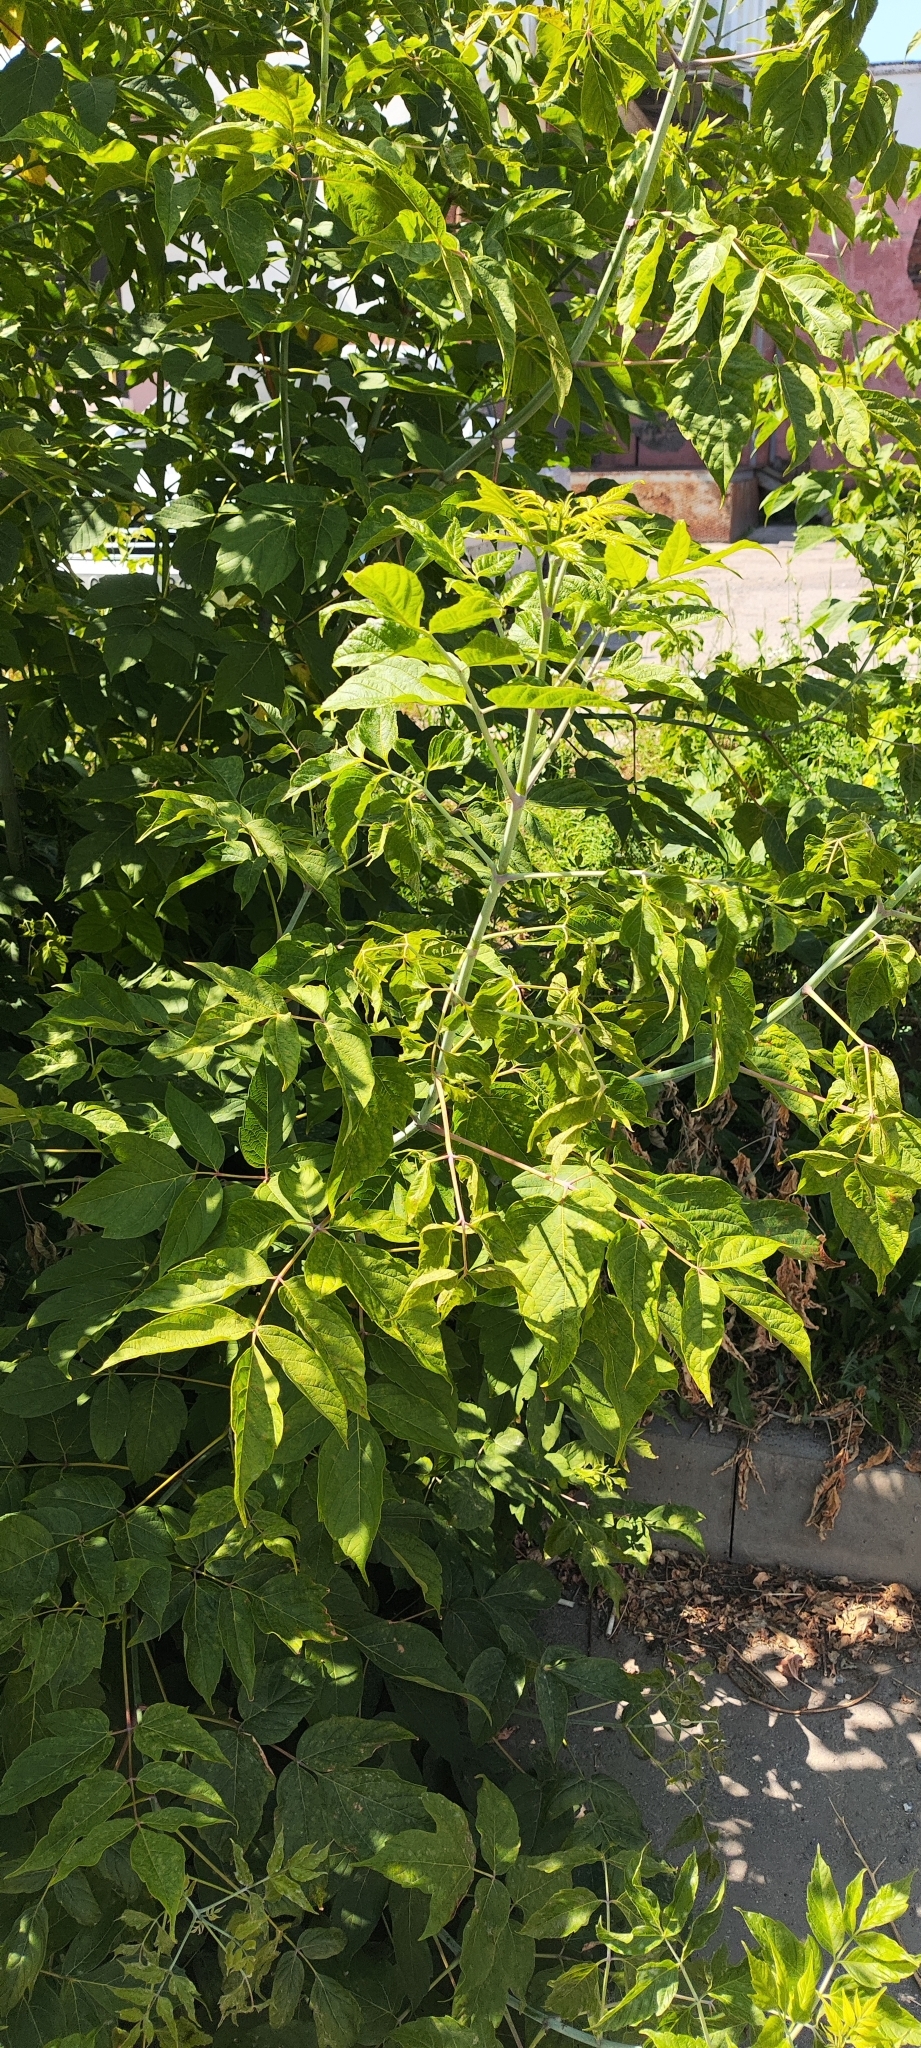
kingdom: Plantae
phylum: Tracheophyta
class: Magnoliopsida
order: Sapindales
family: Sapindaceae
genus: Acer
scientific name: Acer negundo
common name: Ashleaf maple
